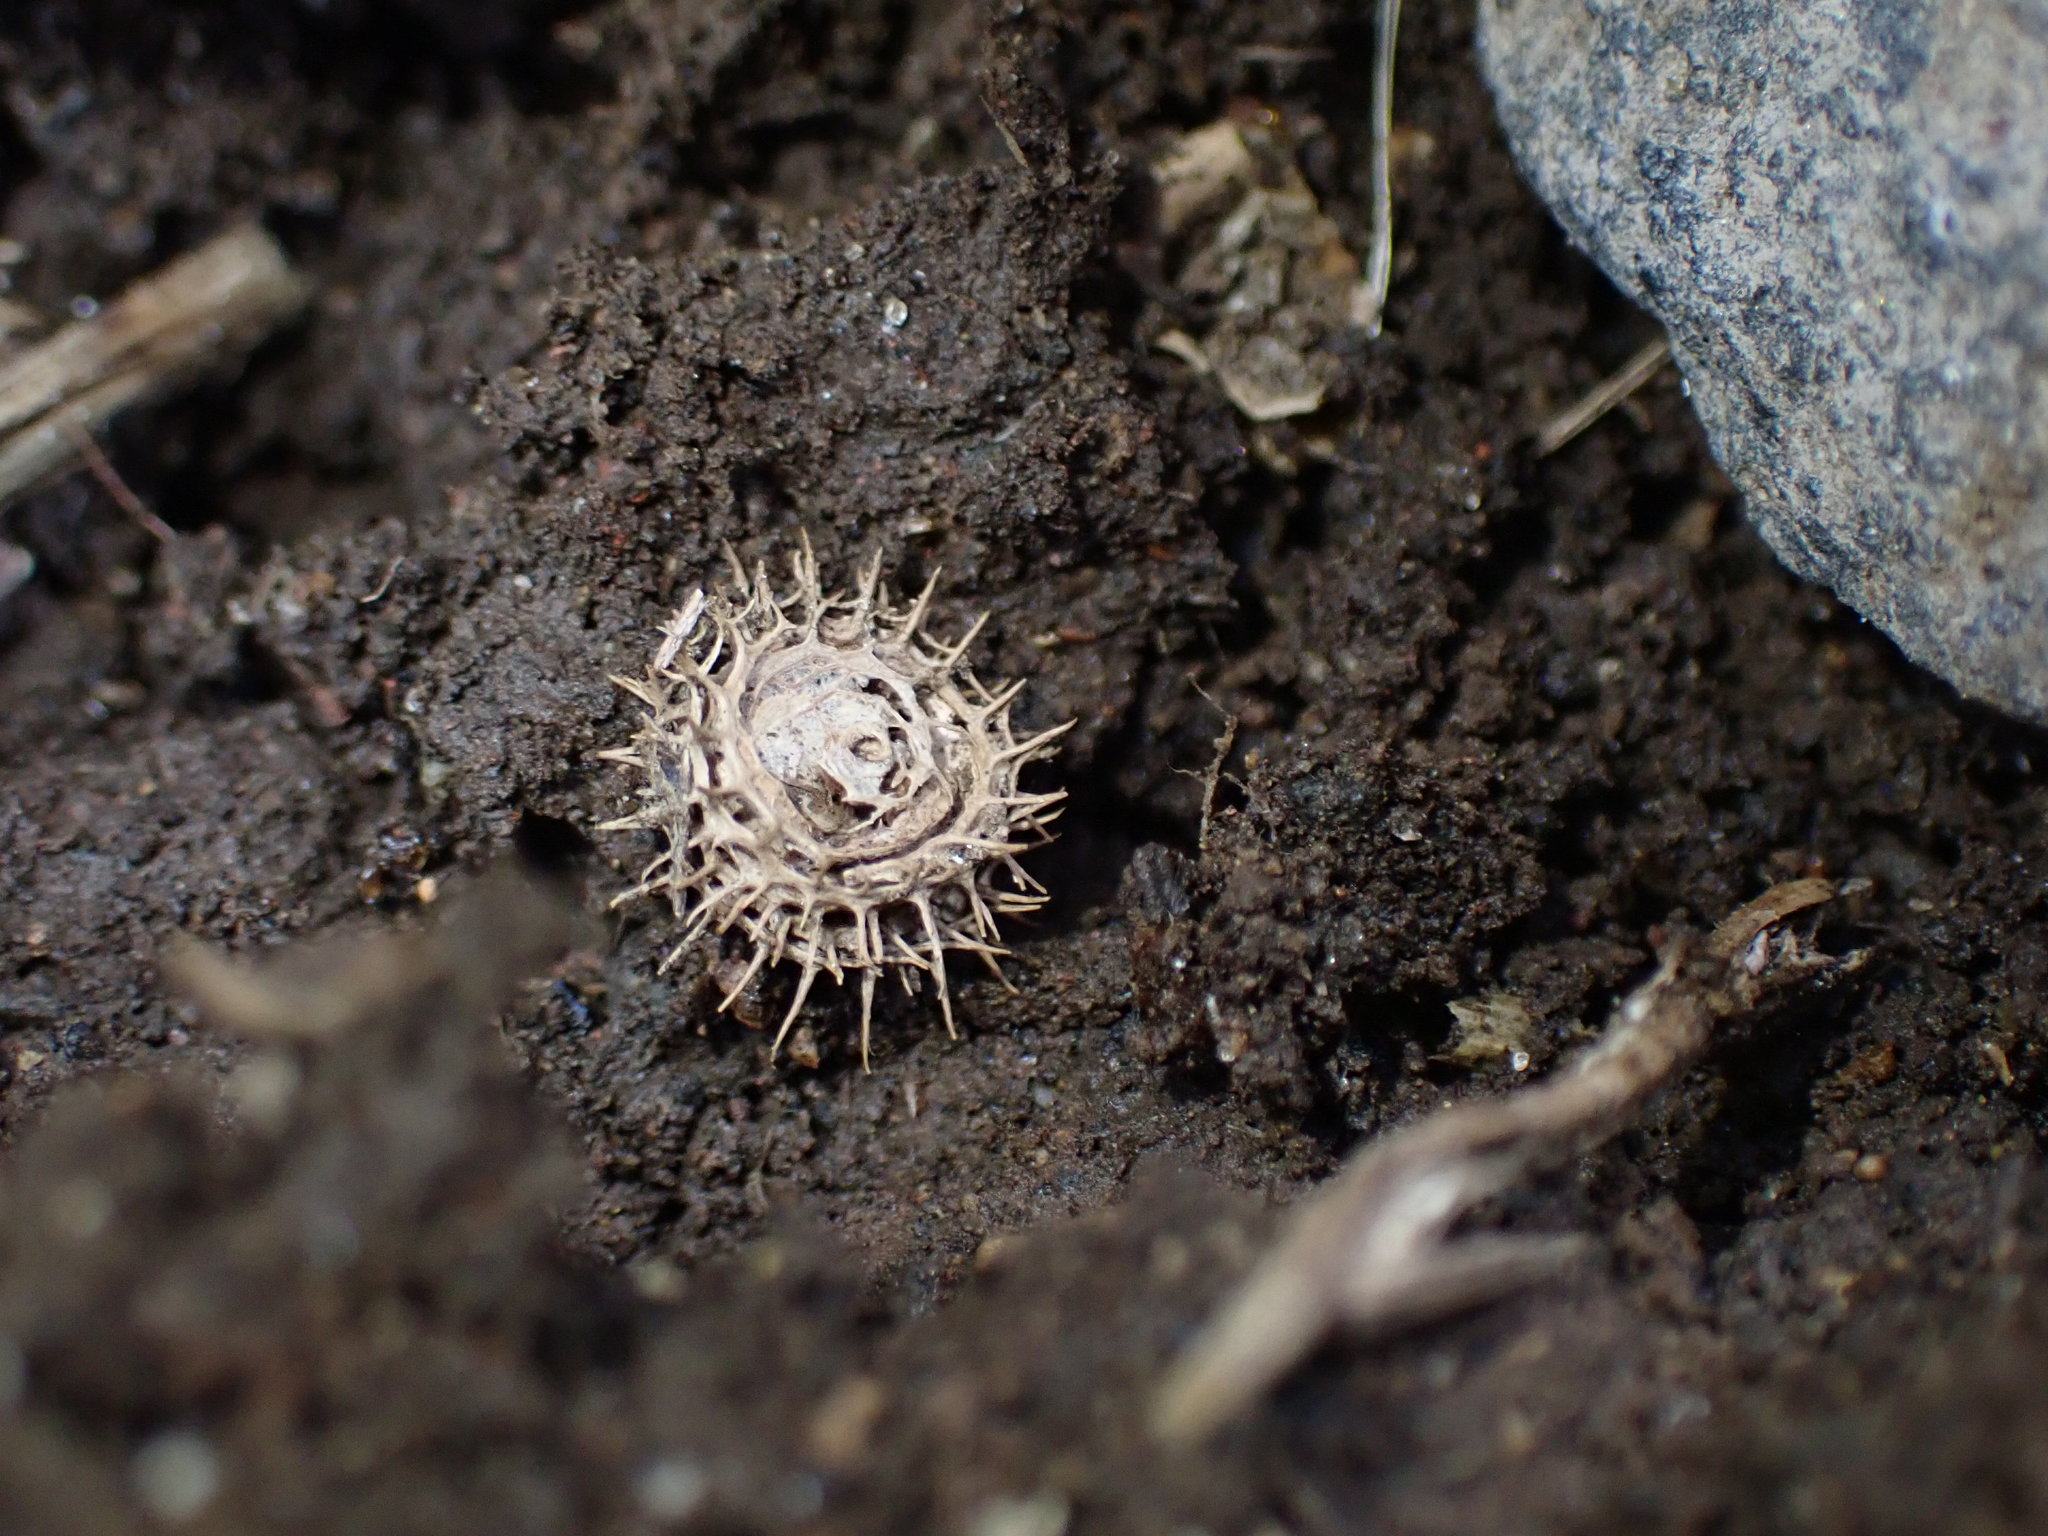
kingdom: Plantae
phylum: Tracheophyta
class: Magnoliopsida
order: Fabales
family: Fabaceae
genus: Medicago
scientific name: Medicago polymorpha
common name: Burclover
